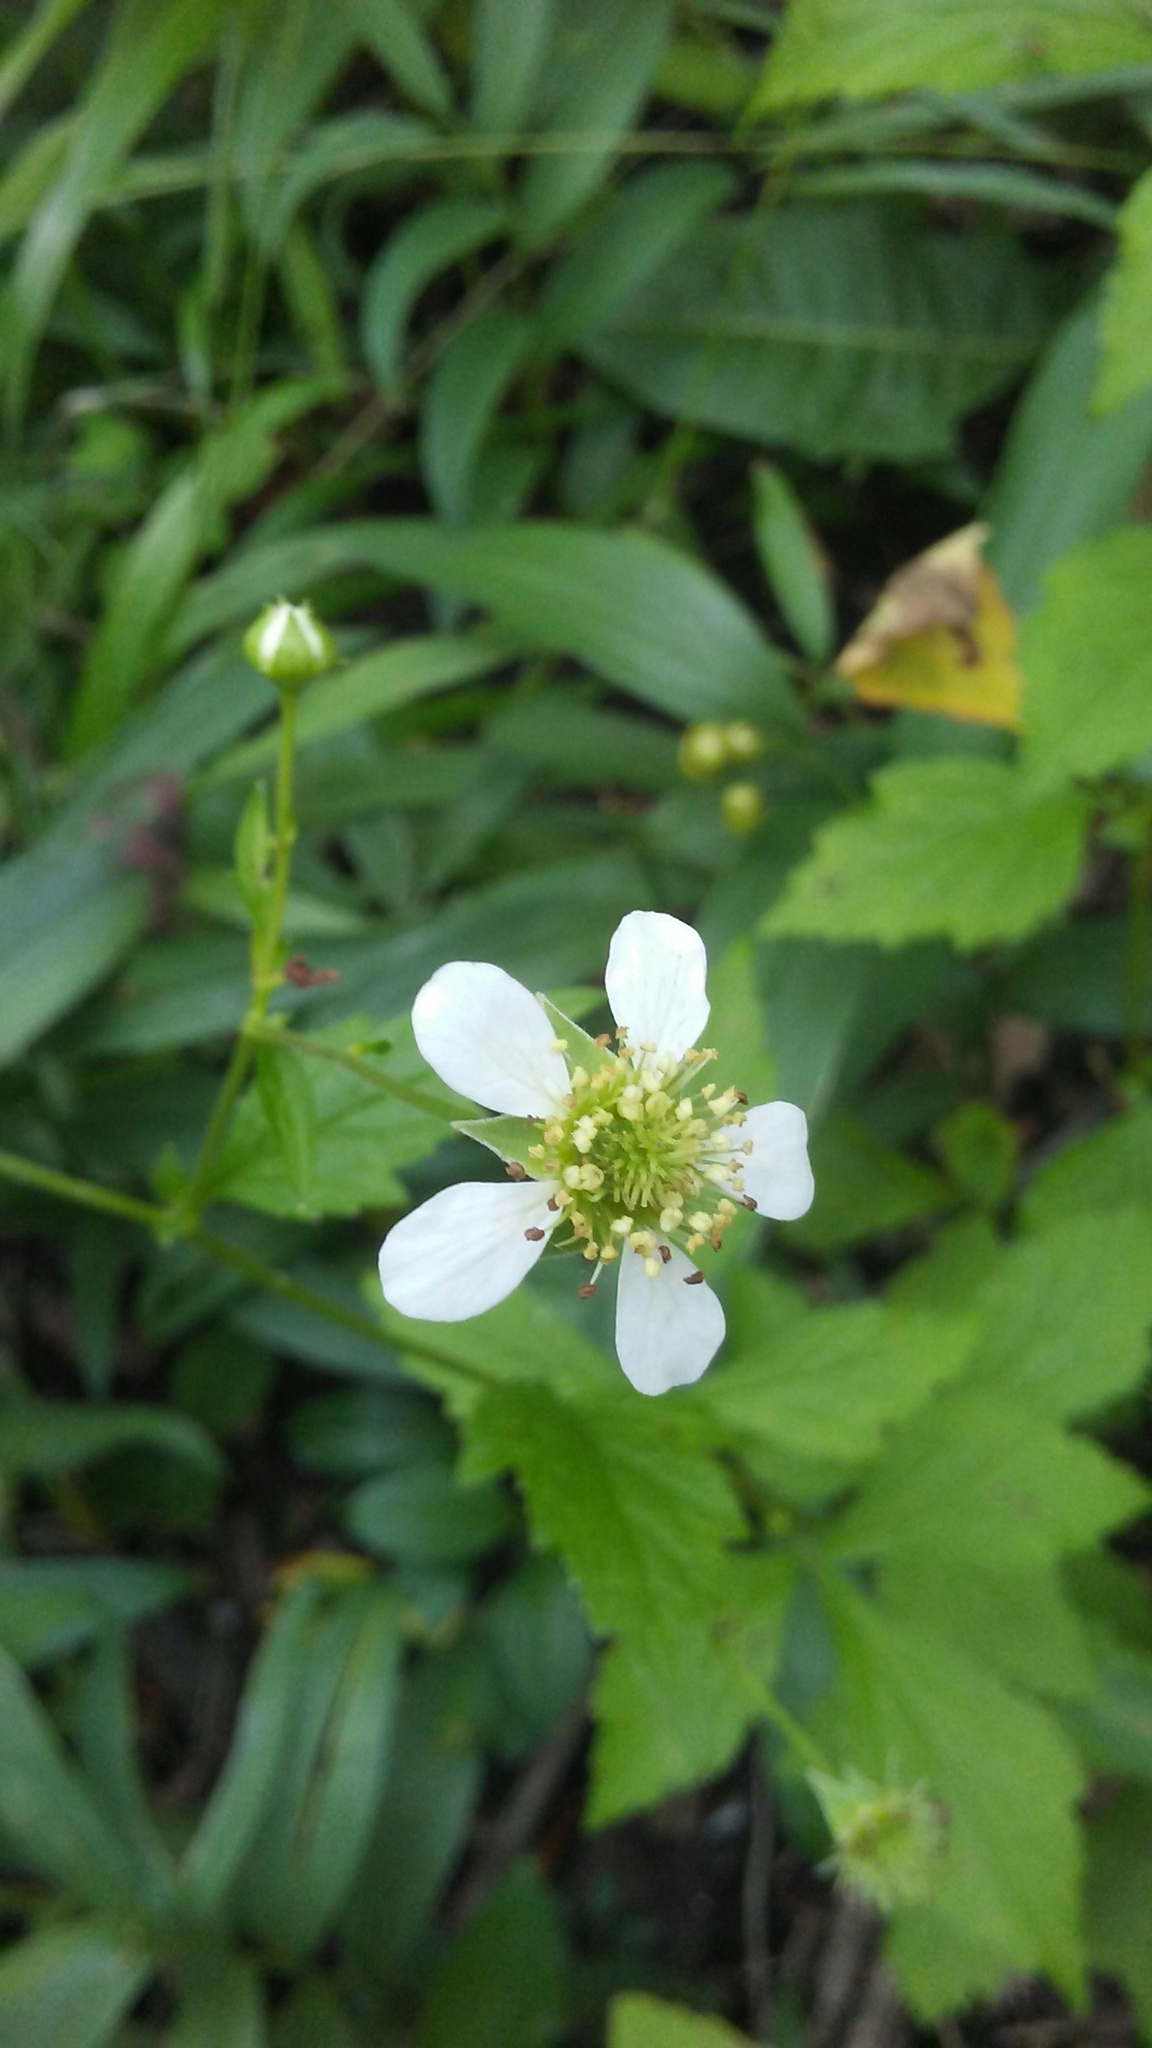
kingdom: Plantae
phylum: Tracheophyta
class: Magnoliopsida
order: Rosales
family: Rosaceae
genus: Geum
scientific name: Geum canadense
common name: White avens
